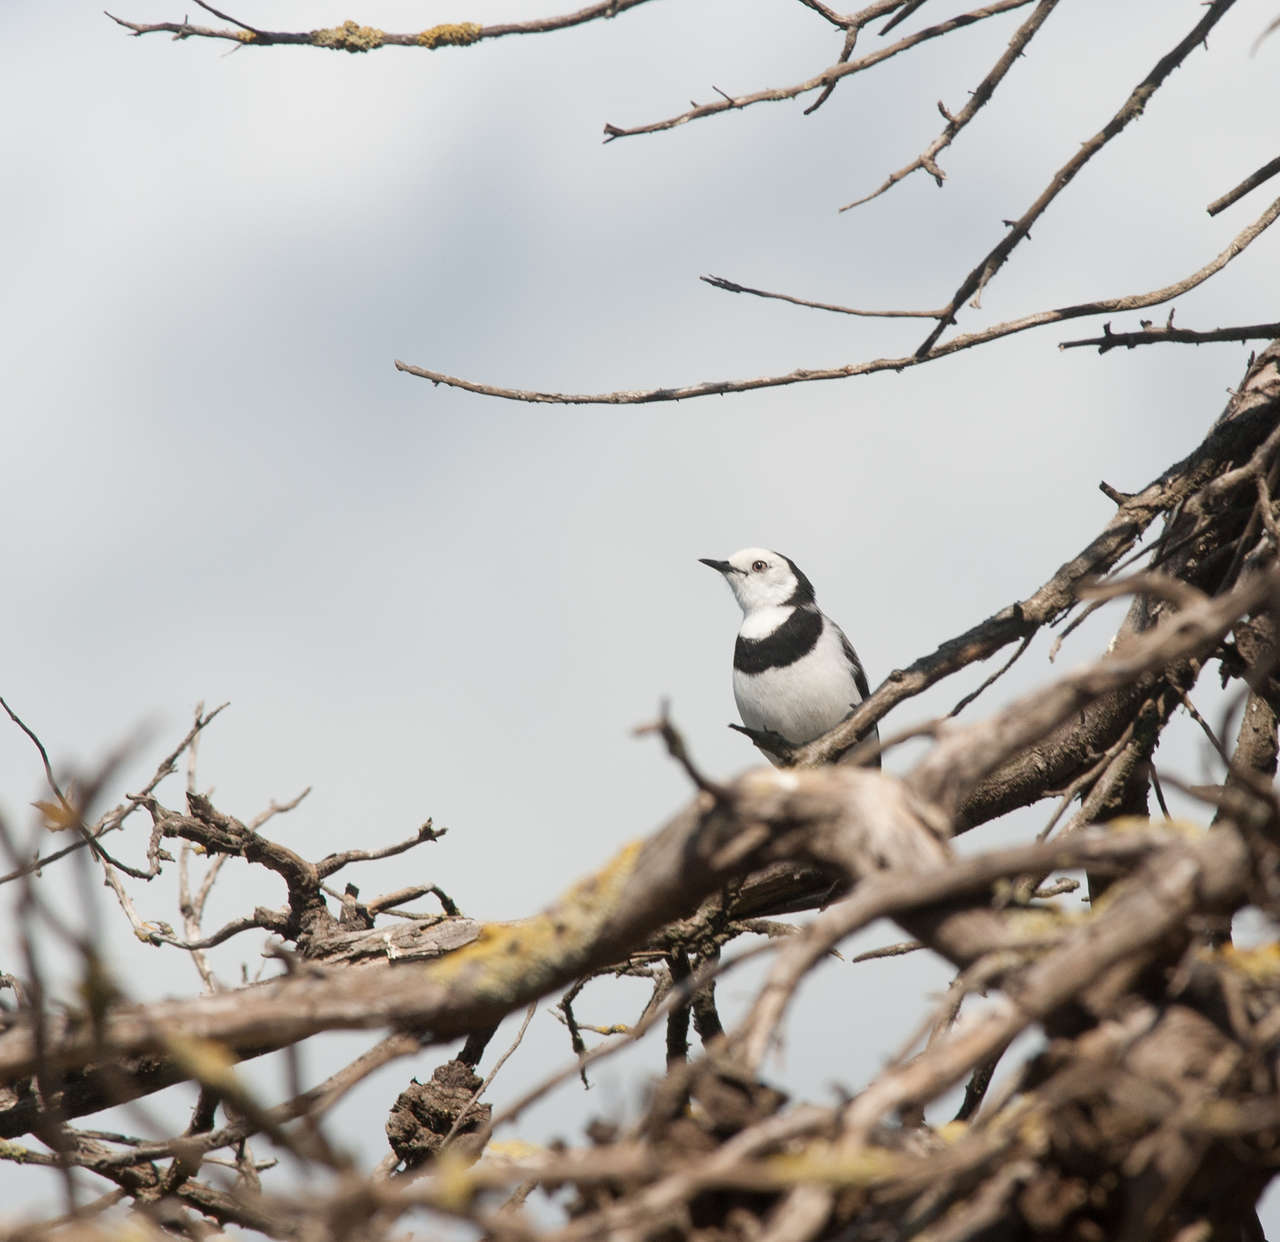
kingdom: Animalia
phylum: Chordata
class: Aves
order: Passeriformes
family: Meliphagidae
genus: Epthianura
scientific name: Epthianura albifrons
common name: White-fronted chat
